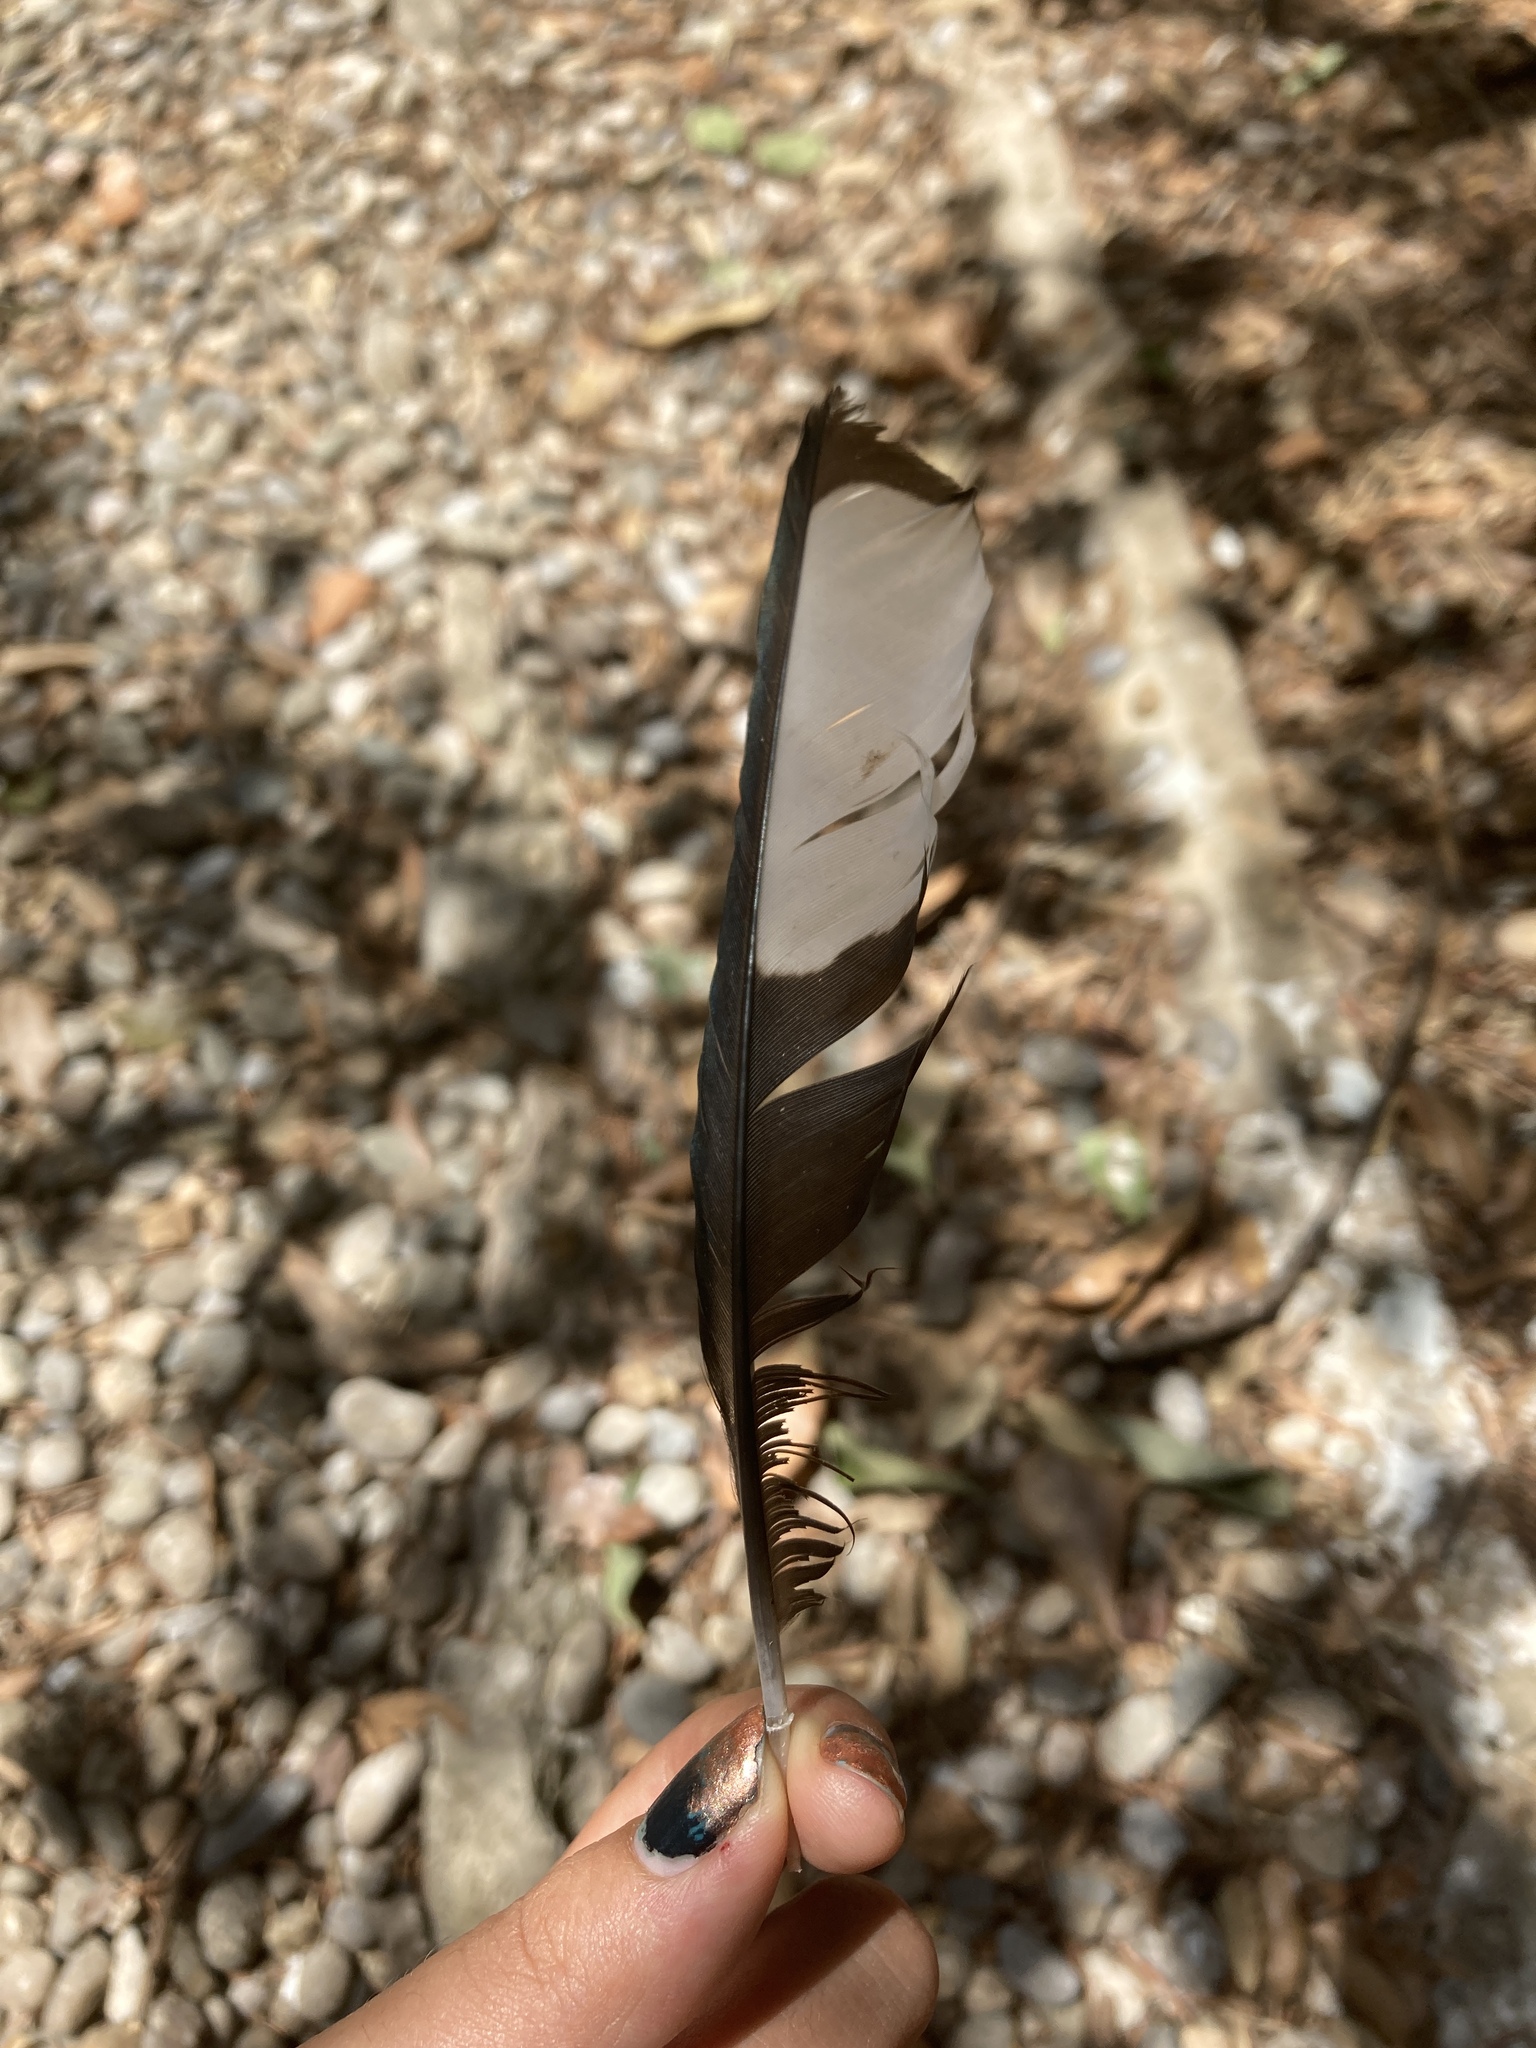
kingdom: Animalia
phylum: Chordata
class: Aves
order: Passeriformes
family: Corvidae
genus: Pica
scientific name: Pica pica
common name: Eurasian magpie
